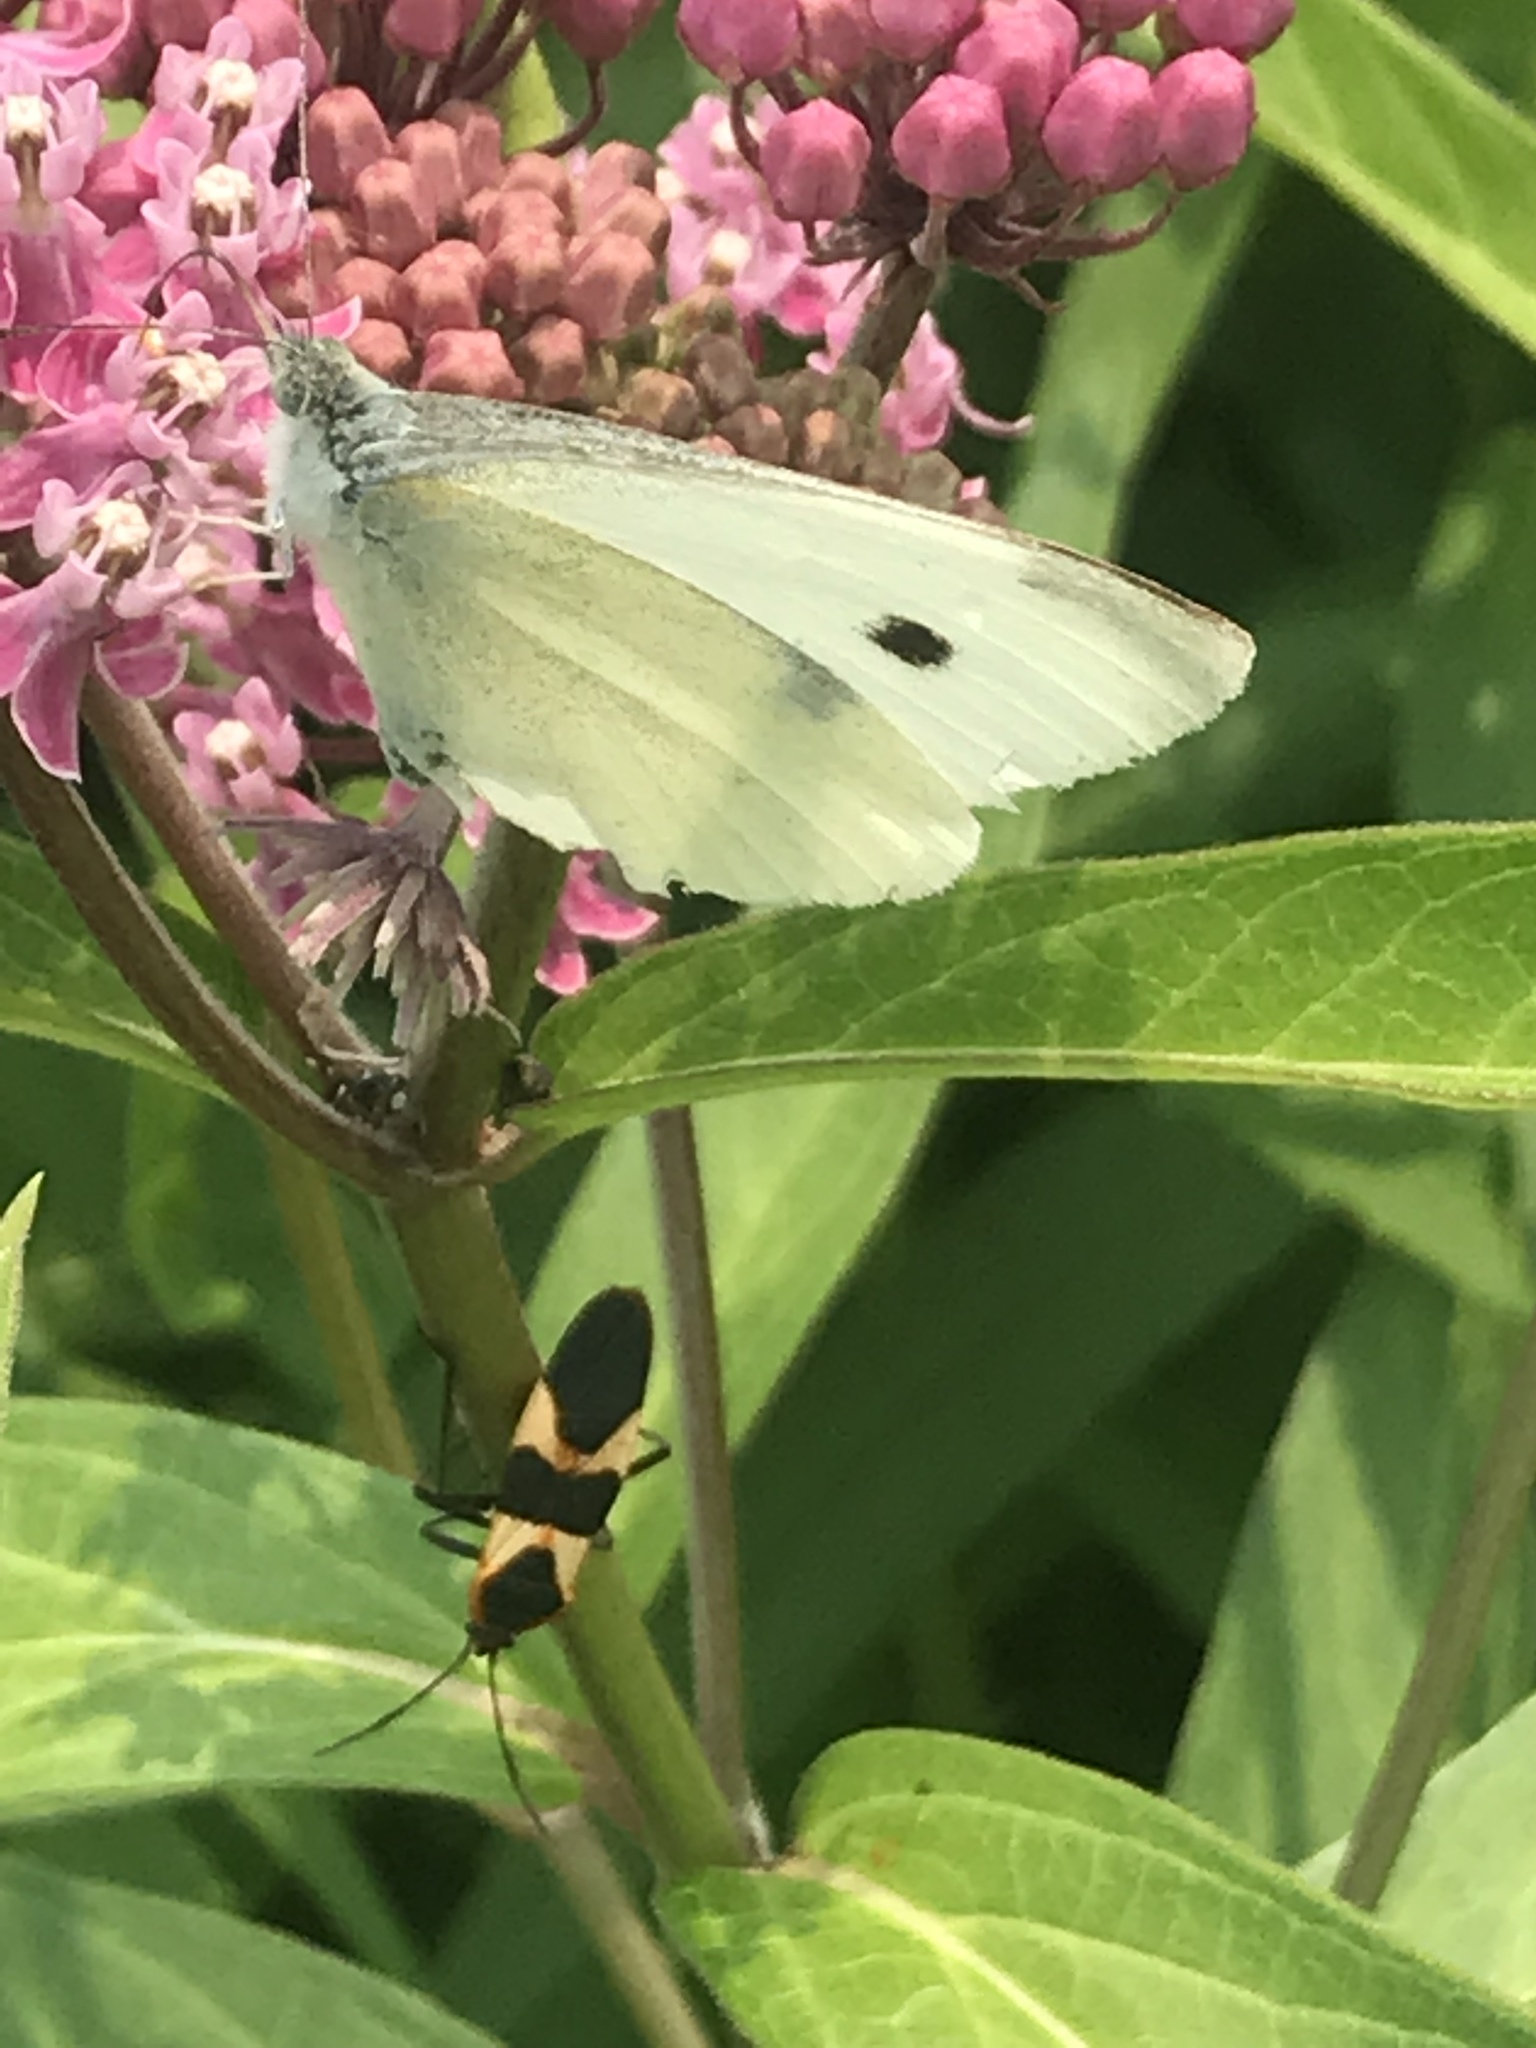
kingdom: Animalia
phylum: Arthropoda
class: Insecta
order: Lepidoptera
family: Pieridae
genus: Pieris
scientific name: Pieris rapae
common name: Small white
